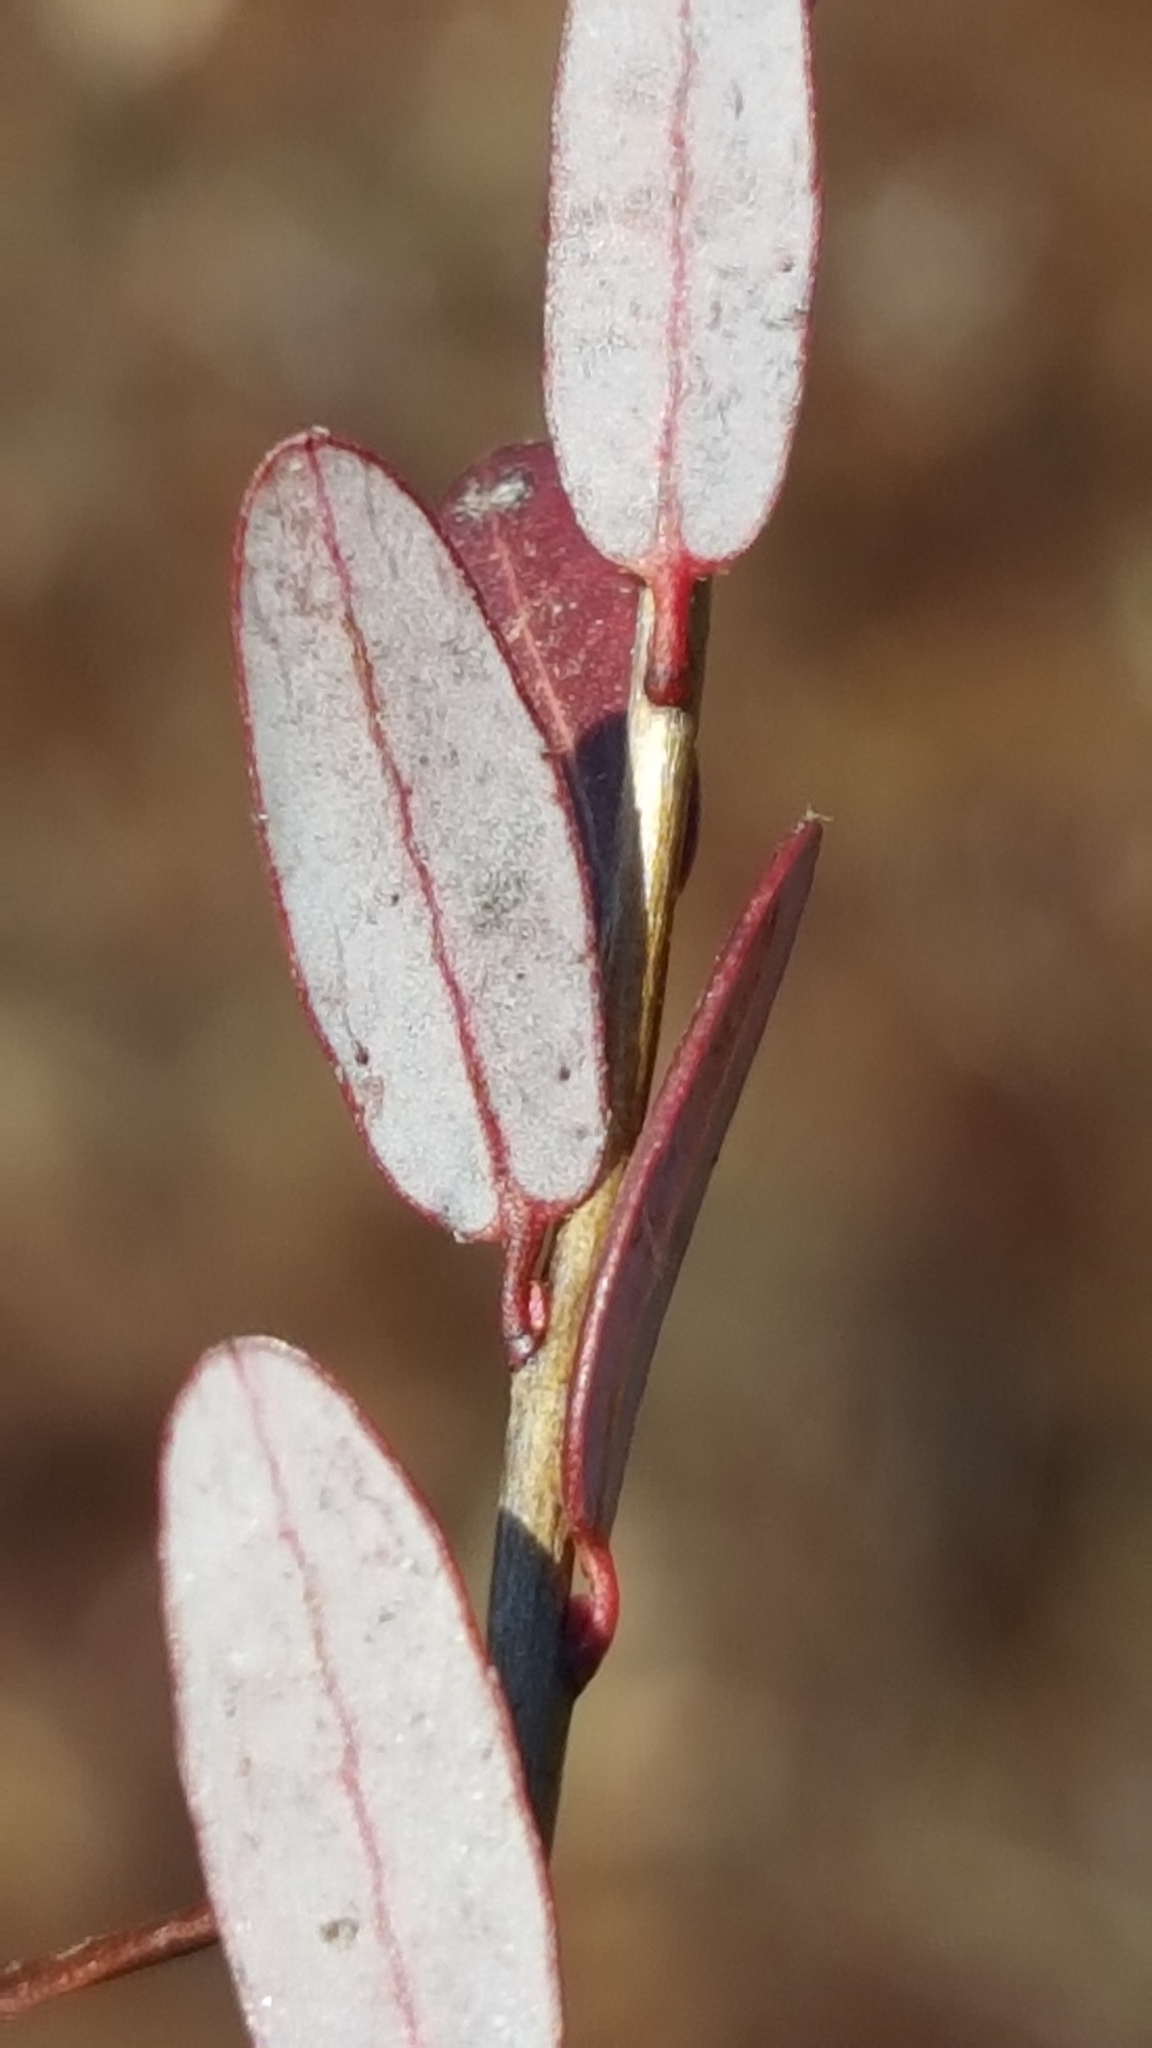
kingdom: Plantae
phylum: Tracheophyta
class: Magnoliopsida
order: Ericales
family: Ericaceae
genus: Vaccinium
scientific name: Vaccinium macrocarpon
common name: American cranberry
